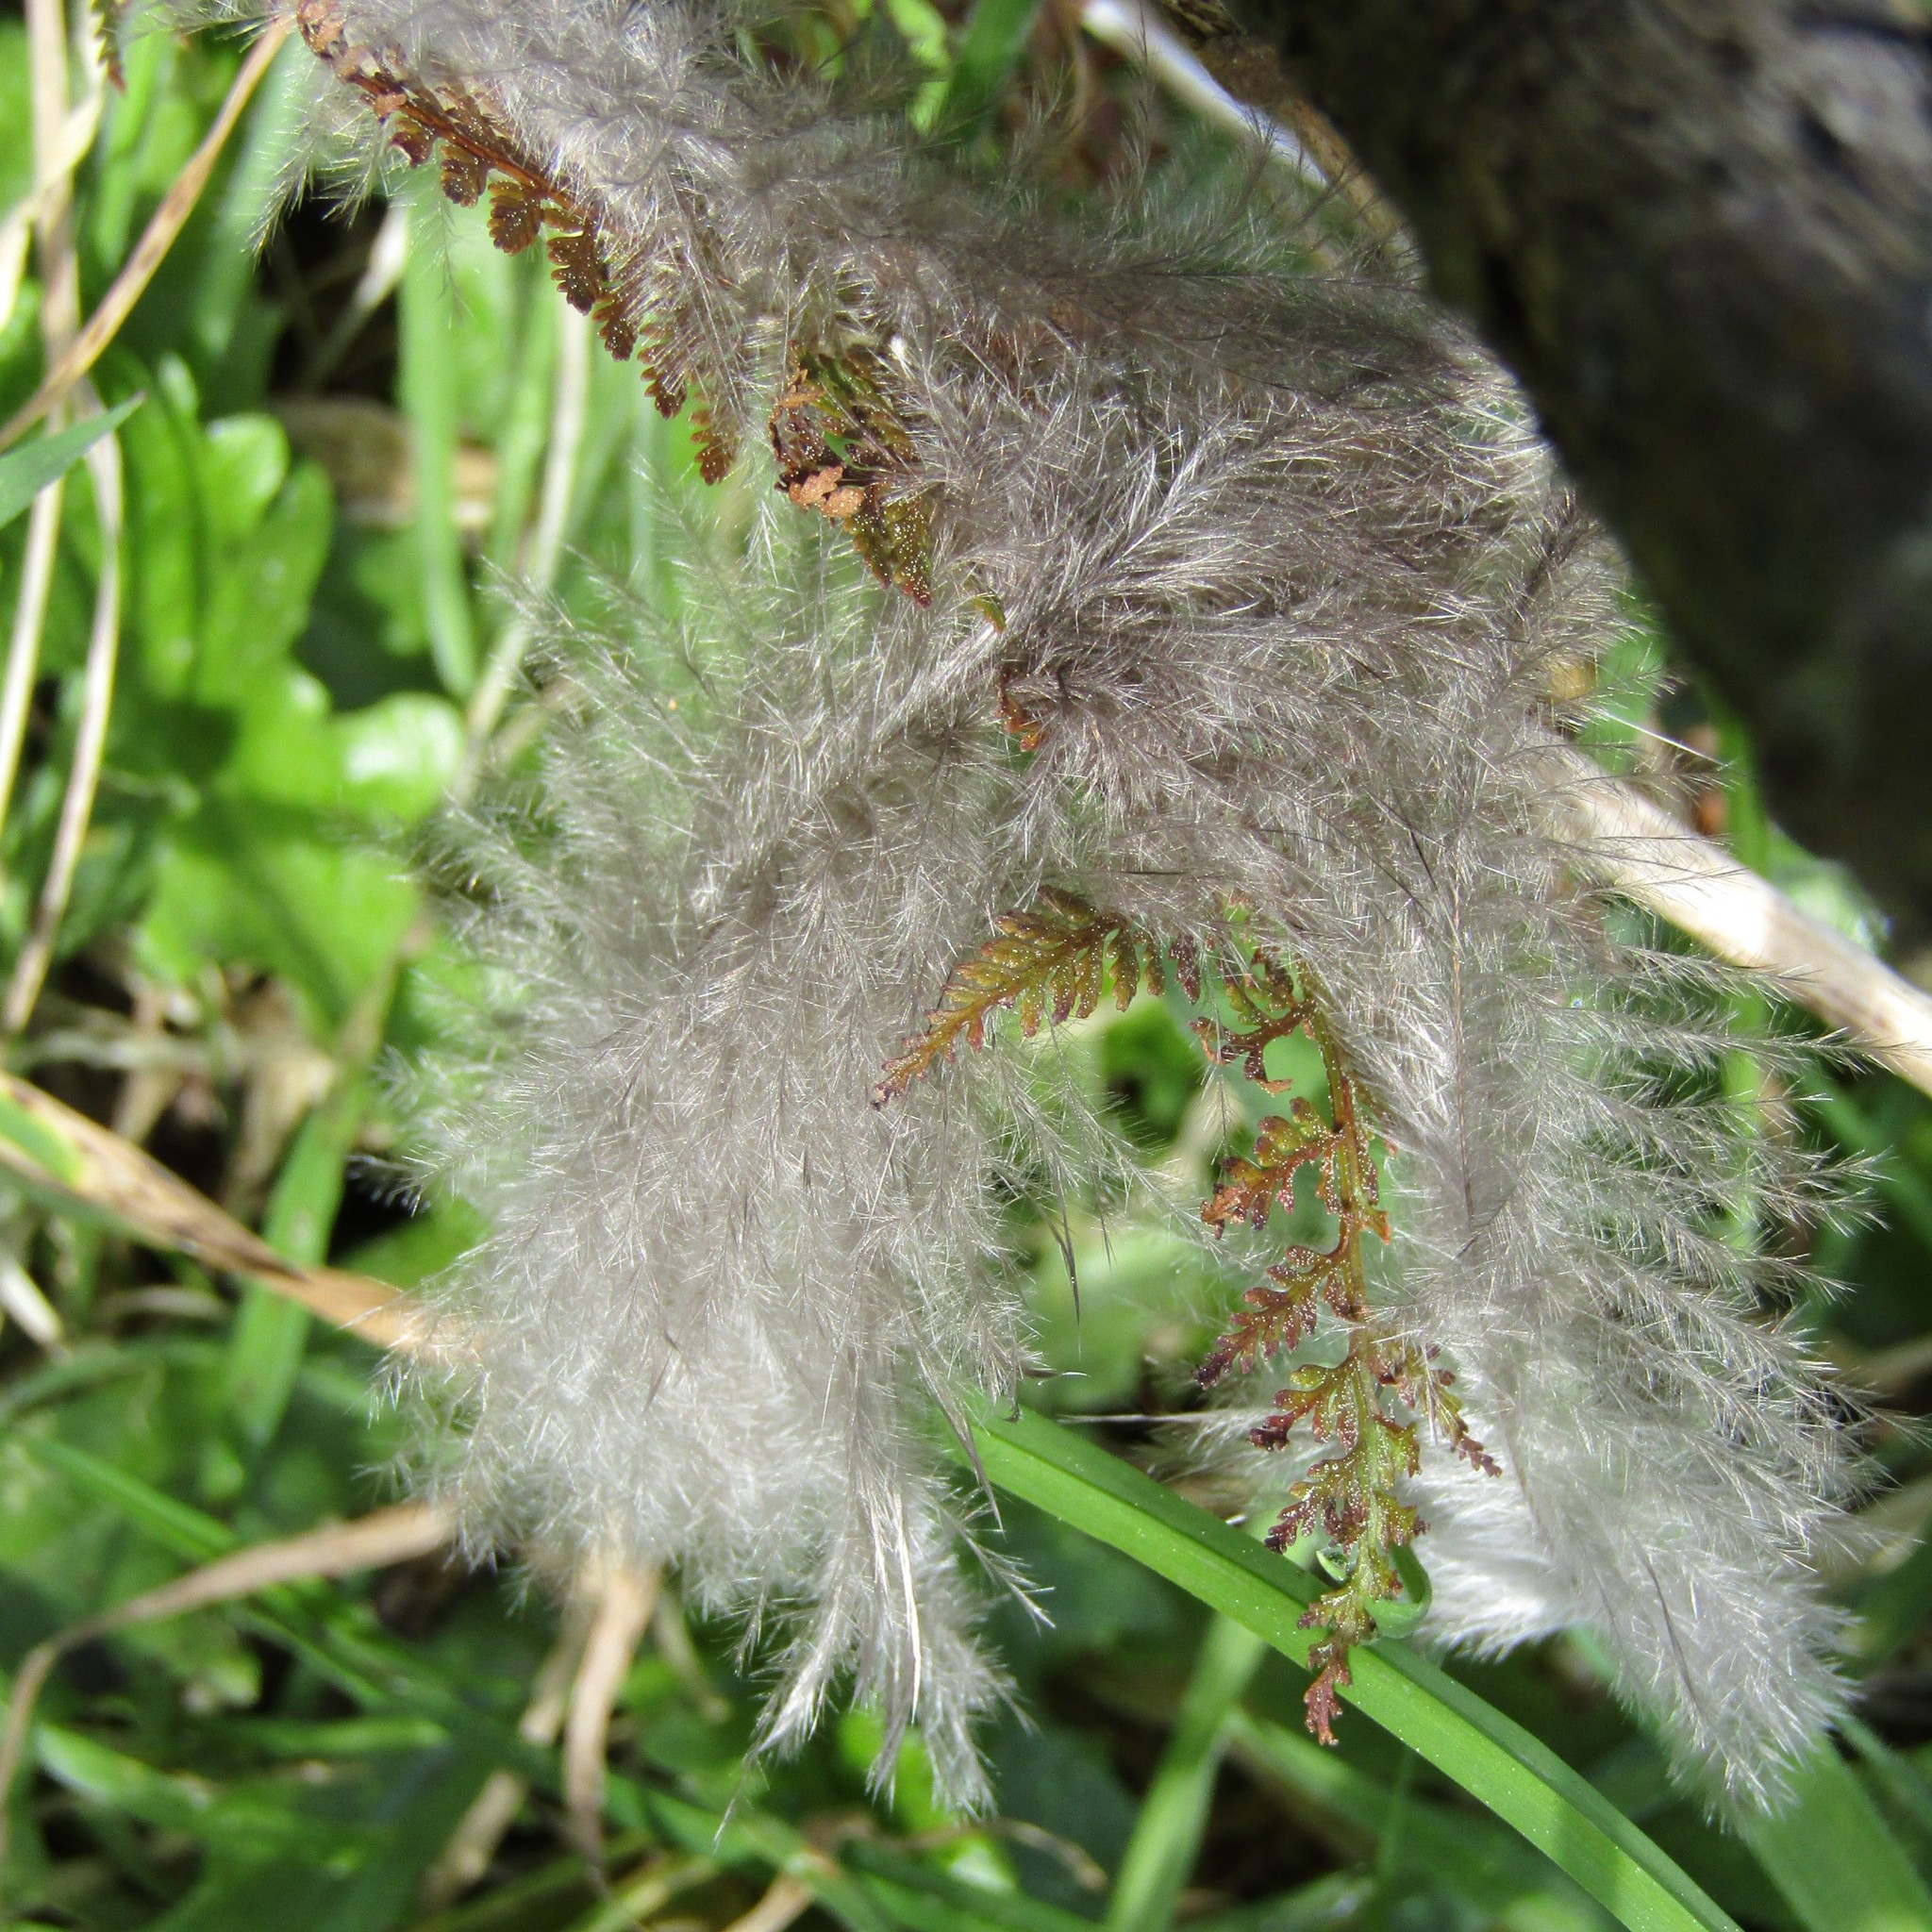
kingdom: Animalia
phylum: Chordata
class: Aves
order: Apterygiformes
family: Apterygidae
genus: Apteryx
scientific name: Apteryx owenii
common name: Little spotted kiwi
